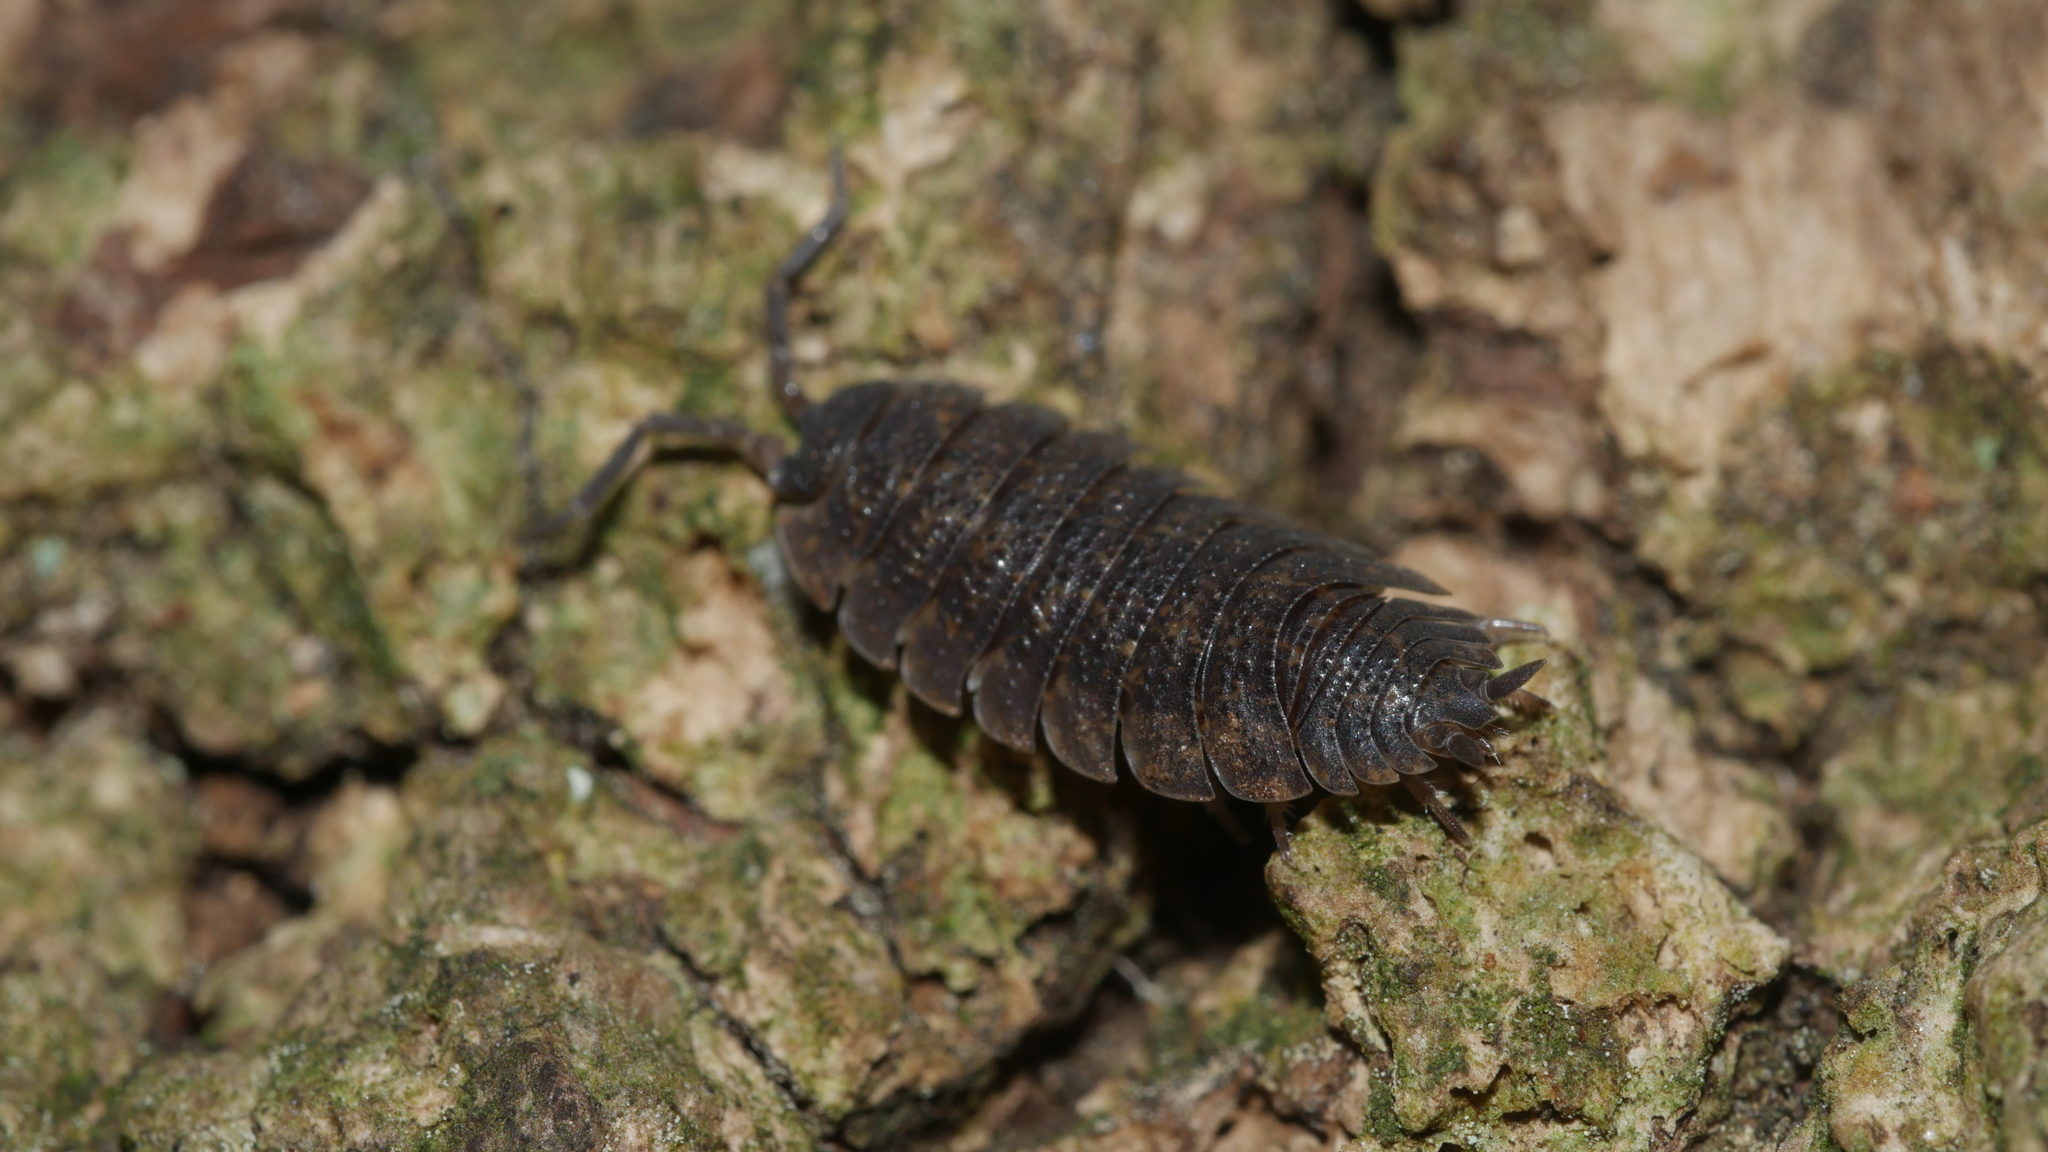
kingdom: Animalia
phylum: Arthropoda
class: Malacostraca
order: Isopoda
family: Porcellionidae
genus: Porcellio
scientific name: Porcellio scaber
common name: Common rough woodlouse
